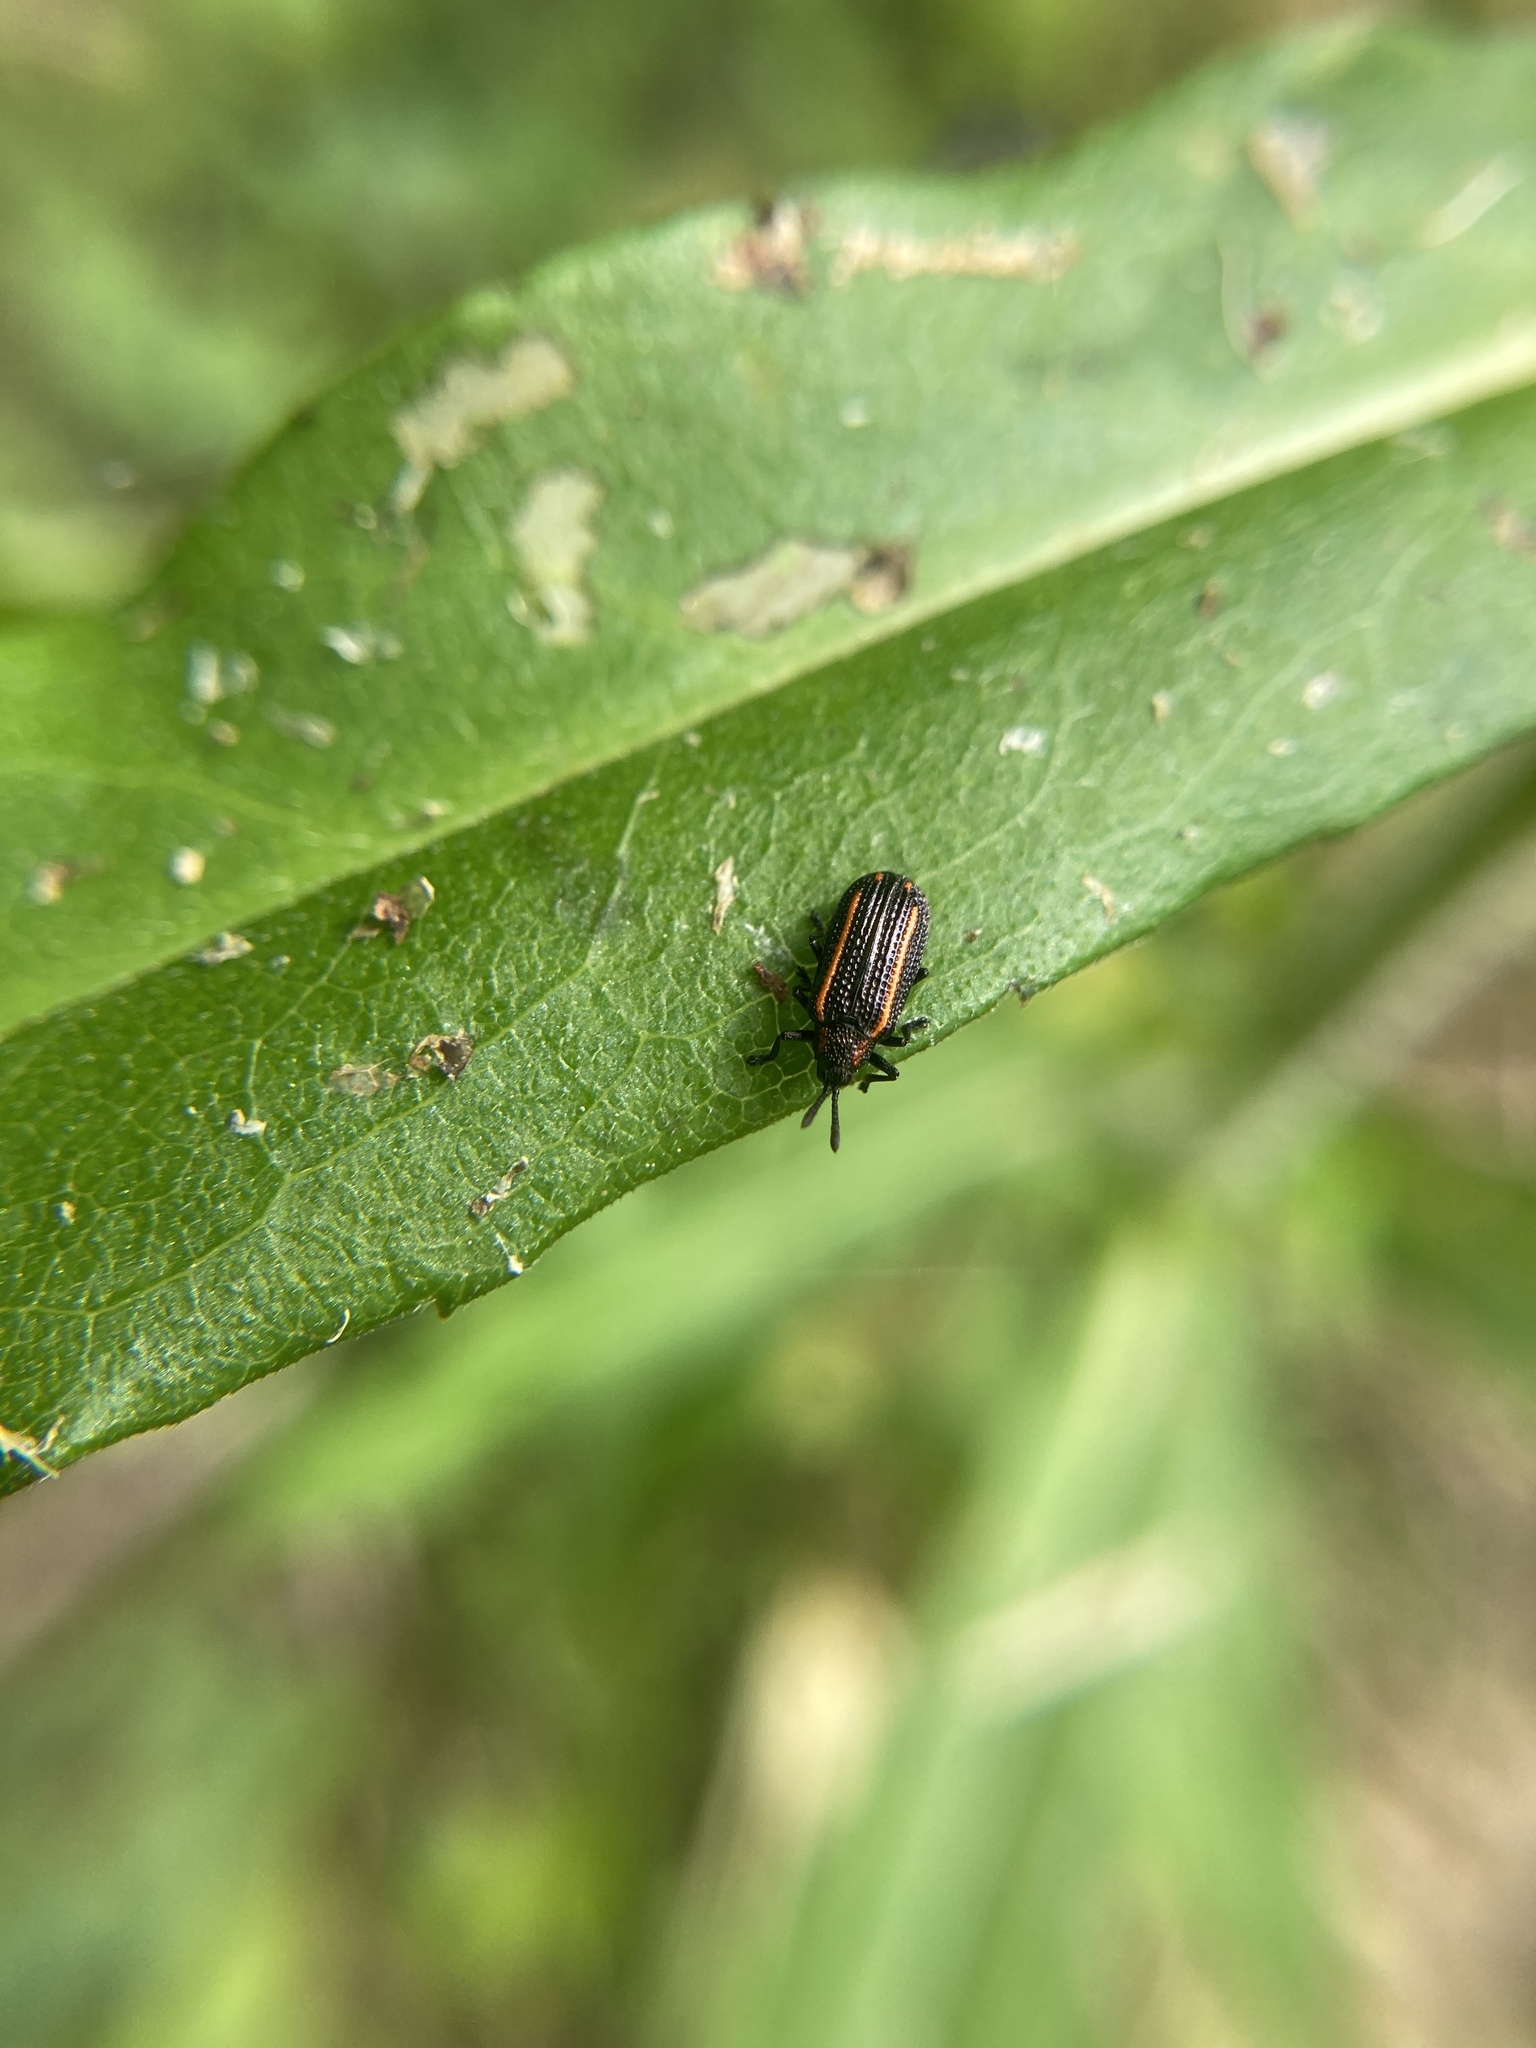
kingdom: Animalia
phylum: Arthropoda
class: Insecta
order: Coleoptera
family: Chrysomelidae
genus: Microrhopala
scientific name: Microrhopala xerene
